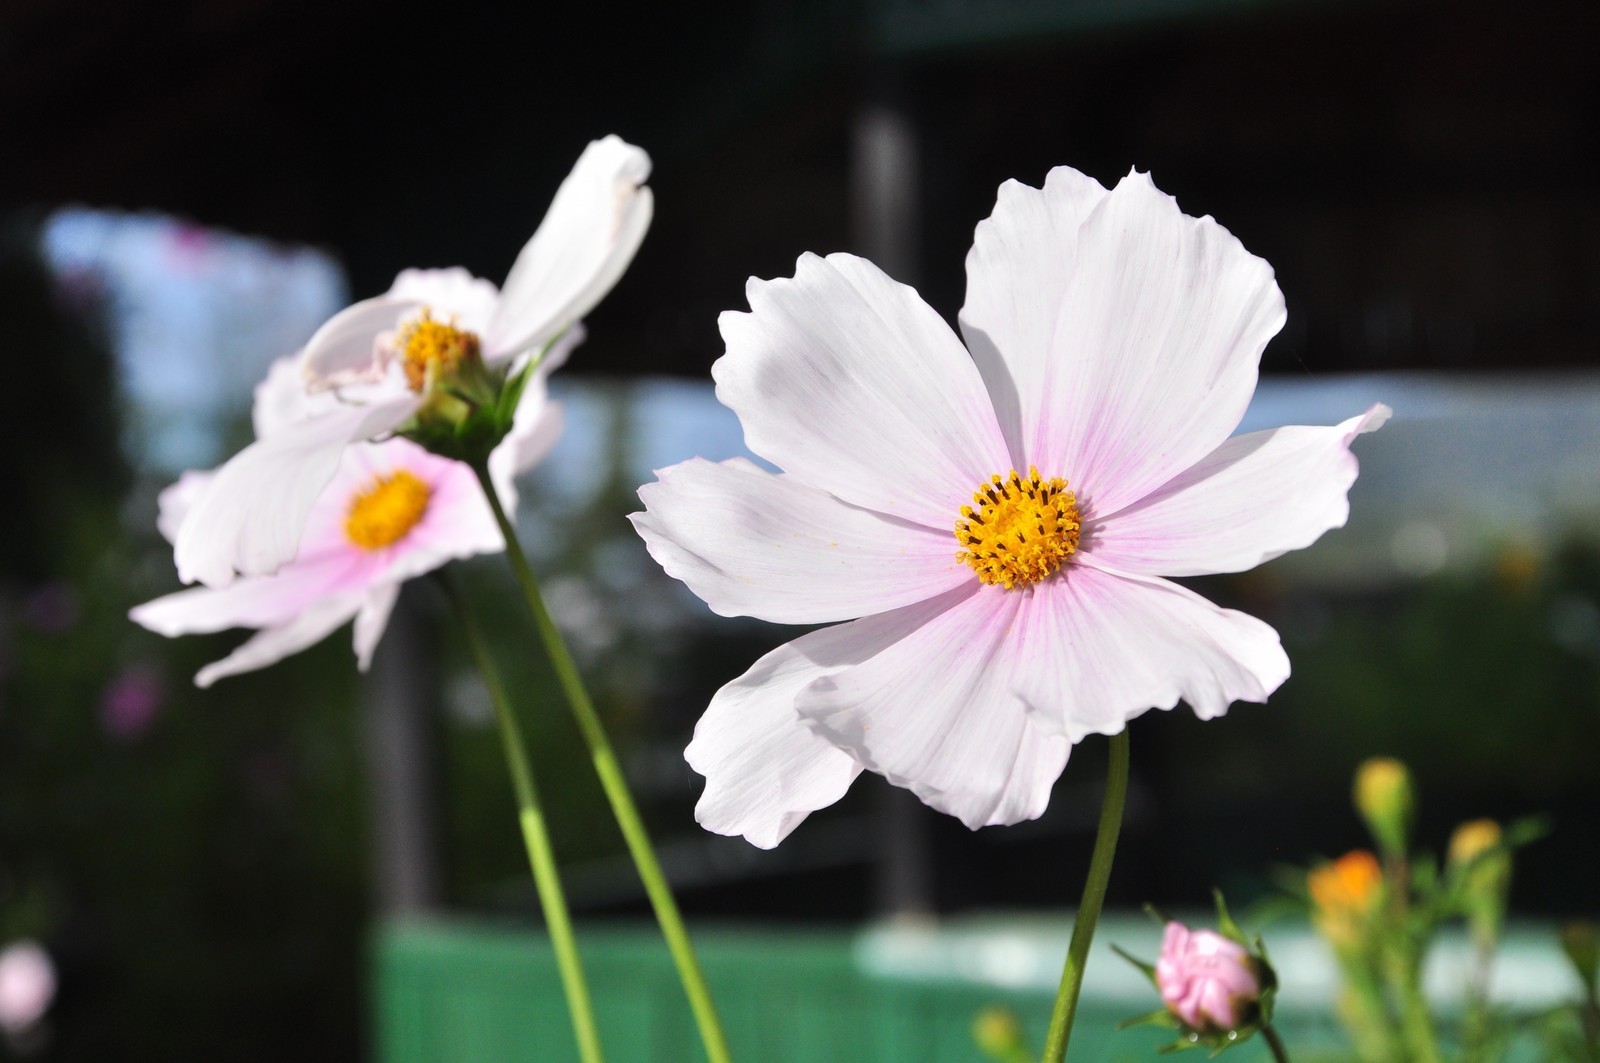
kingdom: Plantae
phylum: Tracheophyta
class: Magnoliopsida
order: Asterales
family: Asteraceae
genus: Cosmos
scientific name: Cosmos bipinnatus
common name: Garden cosmos
